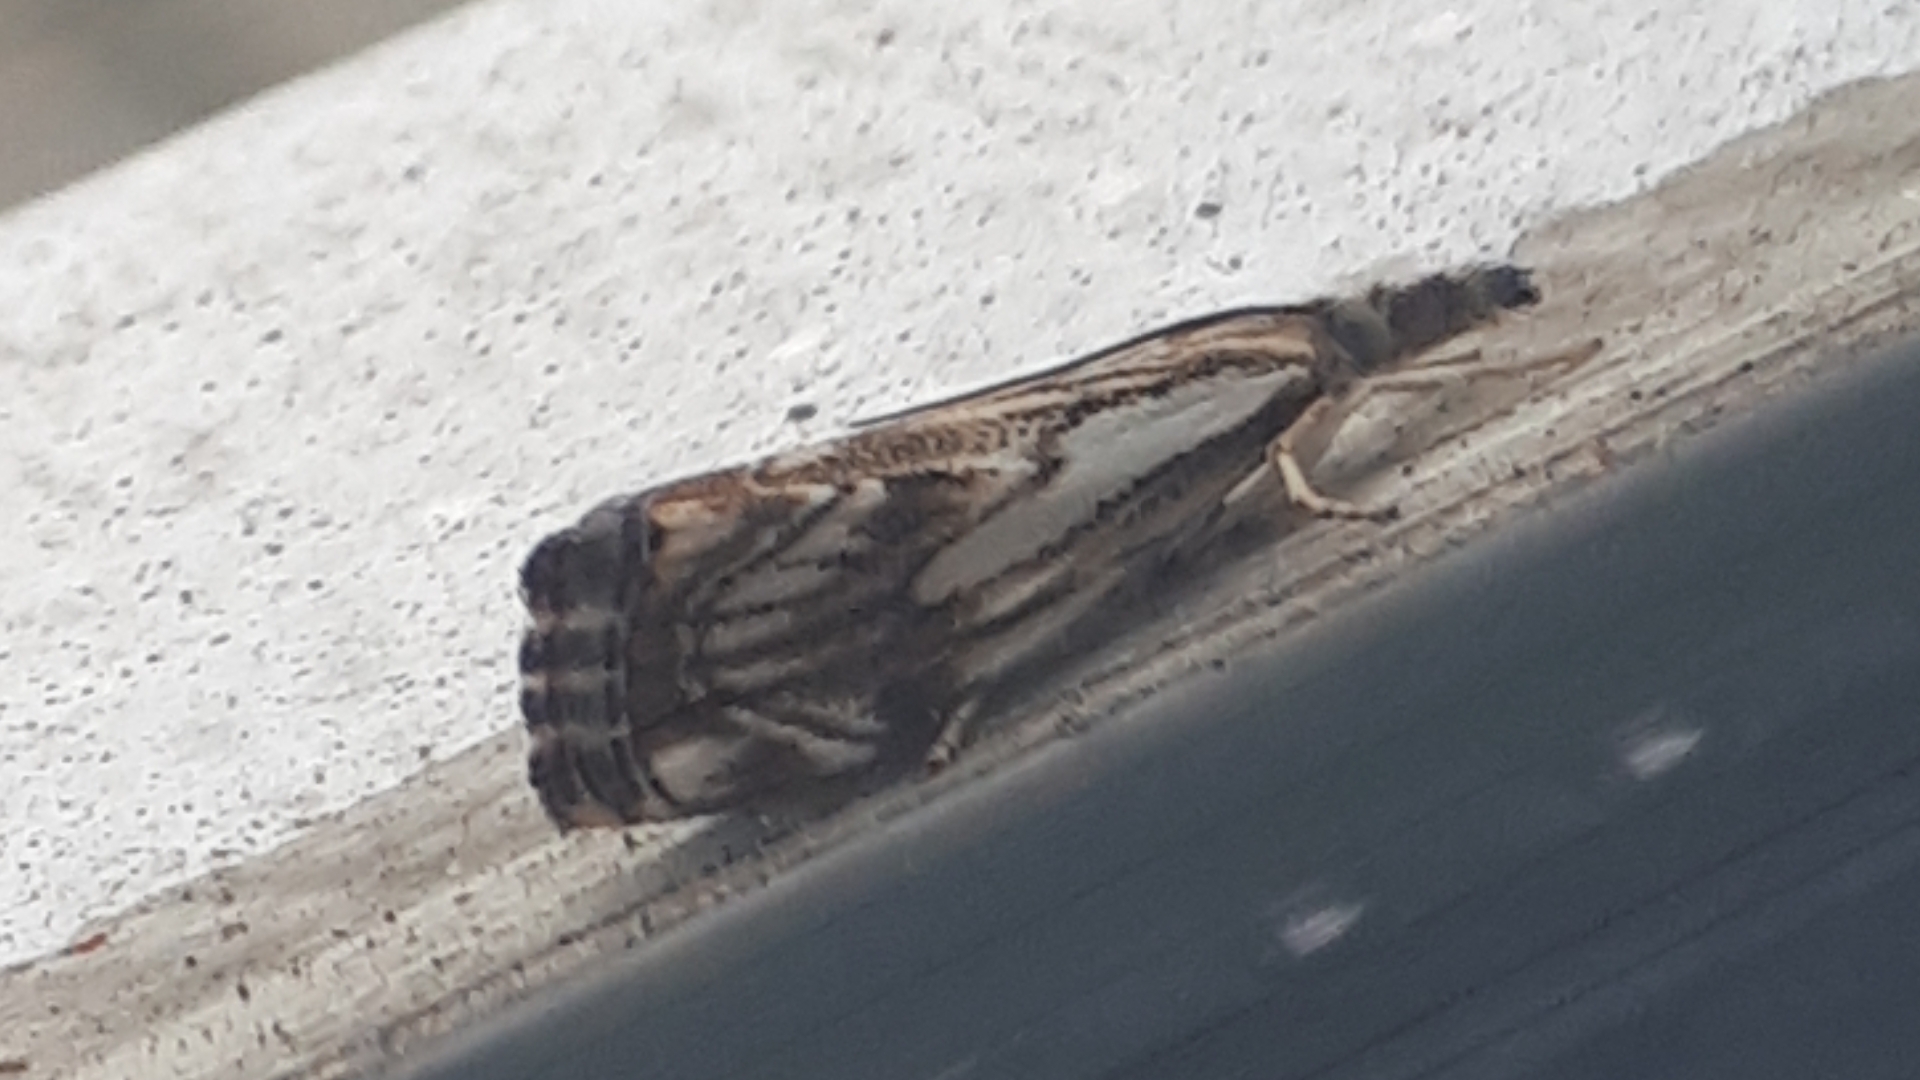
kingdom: Animalia
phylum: Arthropoda
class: Insecta
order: Lepidoptera
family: Crambidae
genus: Catoptria
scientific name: Catoptria falsella
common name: Chequered grass-veneer
